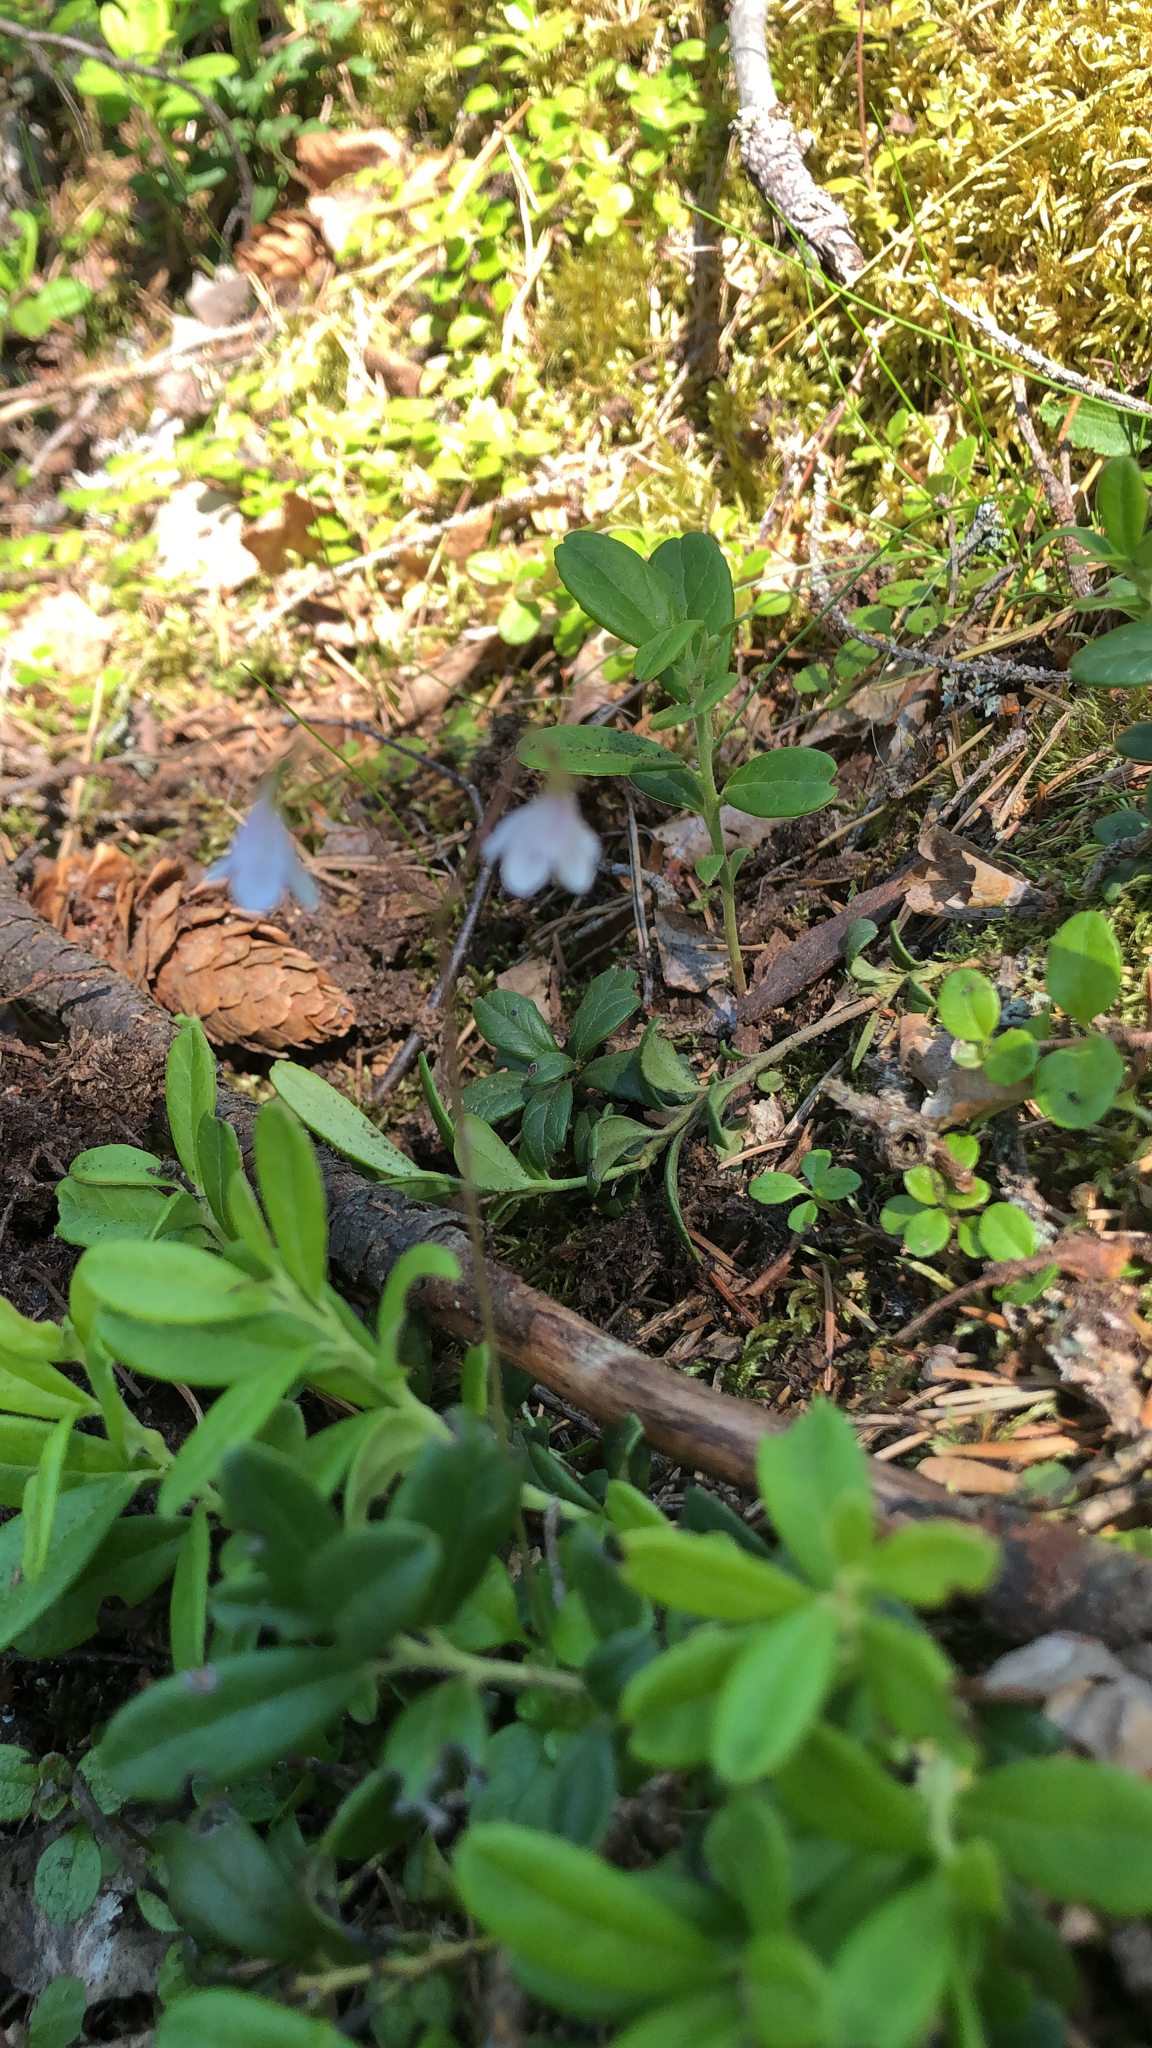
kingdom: Plantae
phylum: Tracheophyta
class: Magnoliopsida
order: Dipsacales
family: Caprifoliaceae
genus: Linnaea
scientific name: Linnaea borealis
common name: Twinflower
